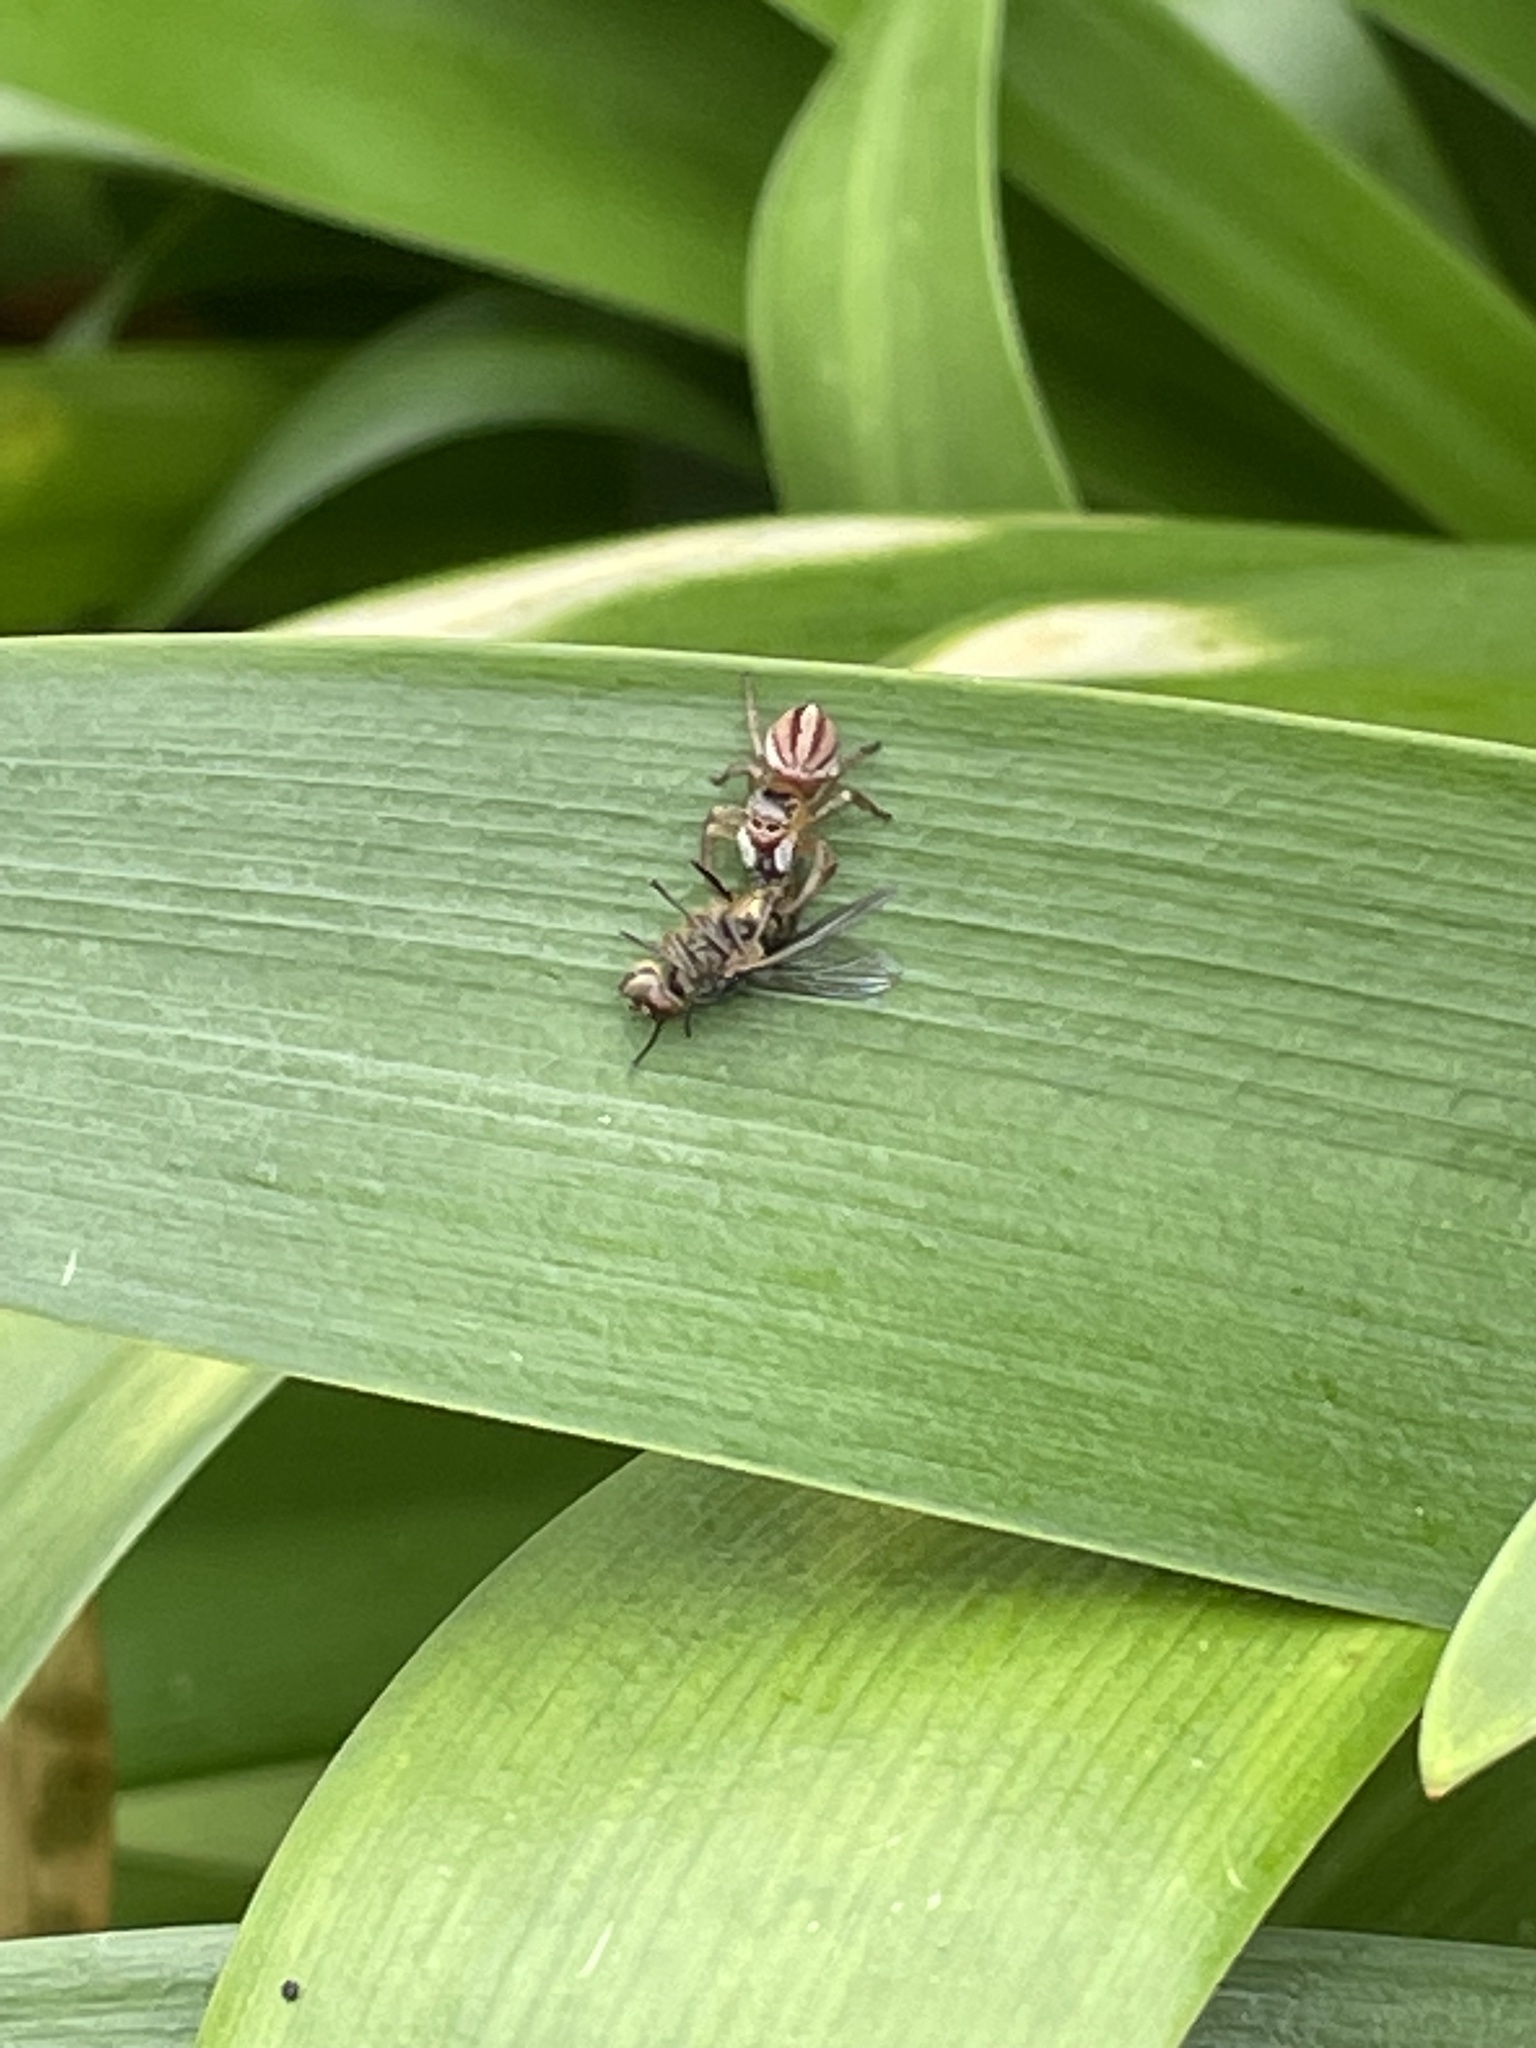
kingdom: Animalia
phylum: Arthropoda
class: Arachnida
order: Araneae
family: Salticidae
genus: Maratus
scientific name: Maratus scutulatus
